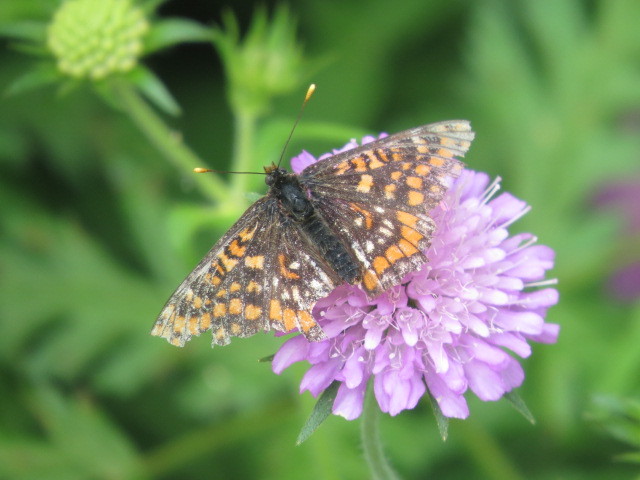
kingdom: Animalia
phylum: Arthropoda
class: Insecta
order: Lepidoptera
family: Nymphalidae
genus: Hypodryas
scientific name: Hypodryas intermedia
